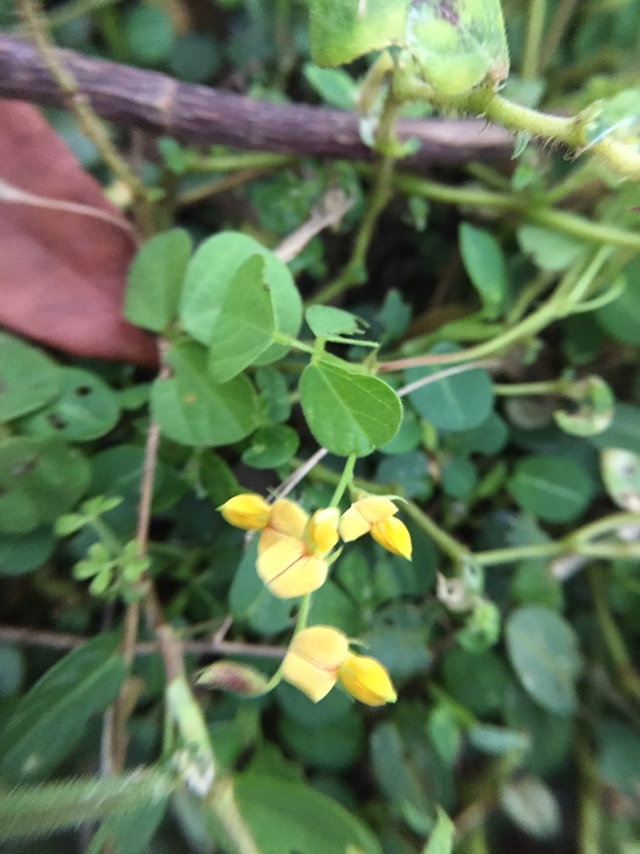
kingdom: Plantae
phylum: Tracheophyta
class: Magnoliopsida
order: Fabales
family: Fabaceae
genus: Rhynchosia
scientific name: Rhynchosia minima
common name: Least snoutbean
